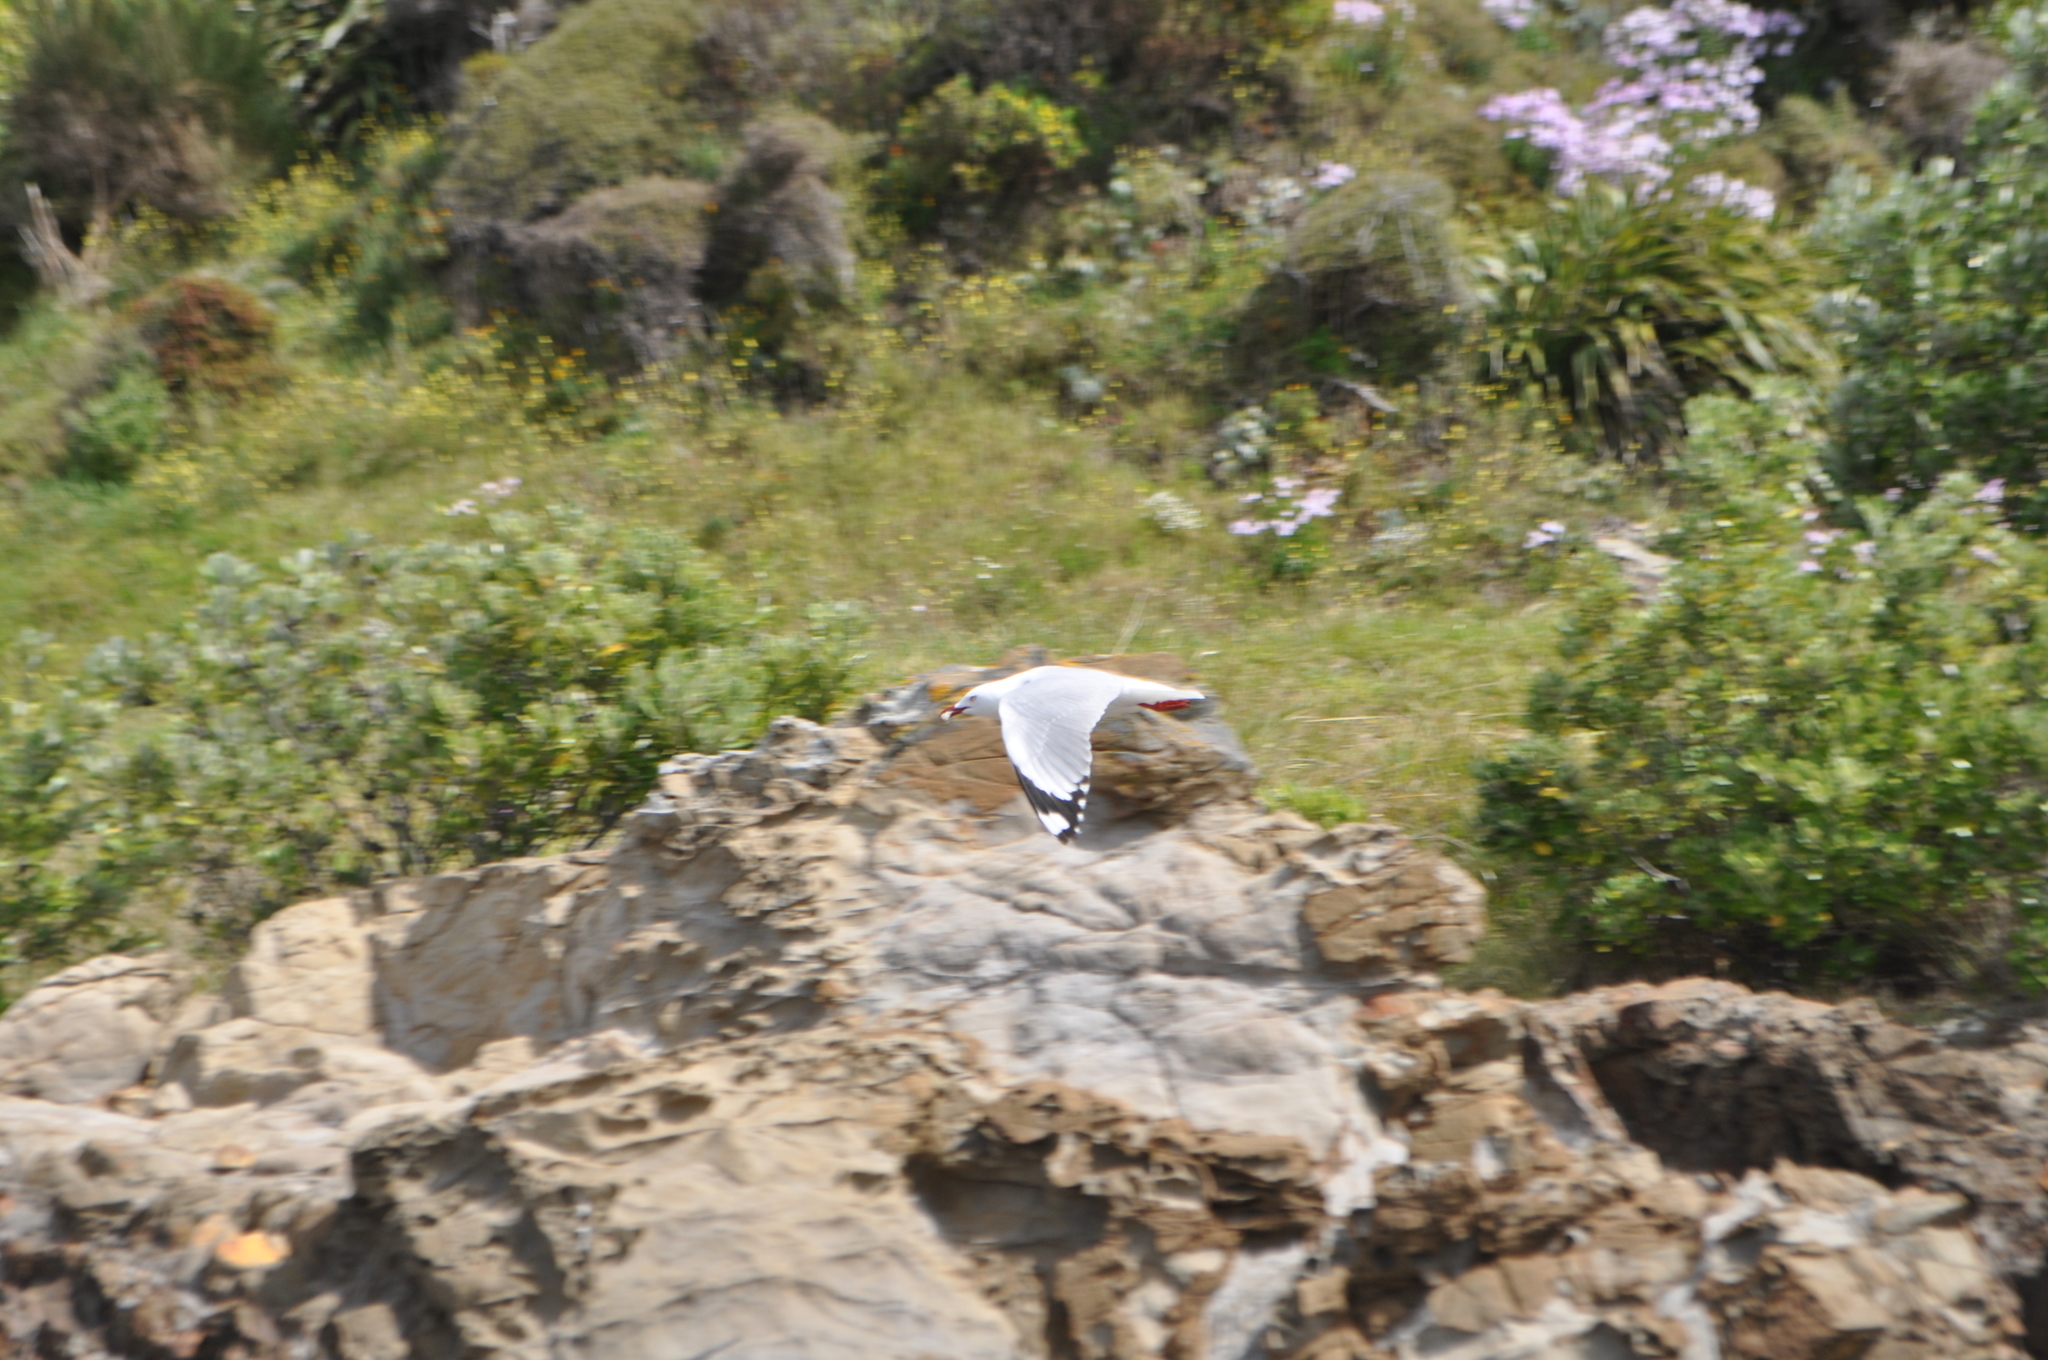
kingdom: Animalia
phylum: Chordata
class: Aves
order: Charadriiformes
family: Laridae
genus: Chroicocephalus
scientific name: Chroicocephalus novaehollandiae
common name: Silver gull
